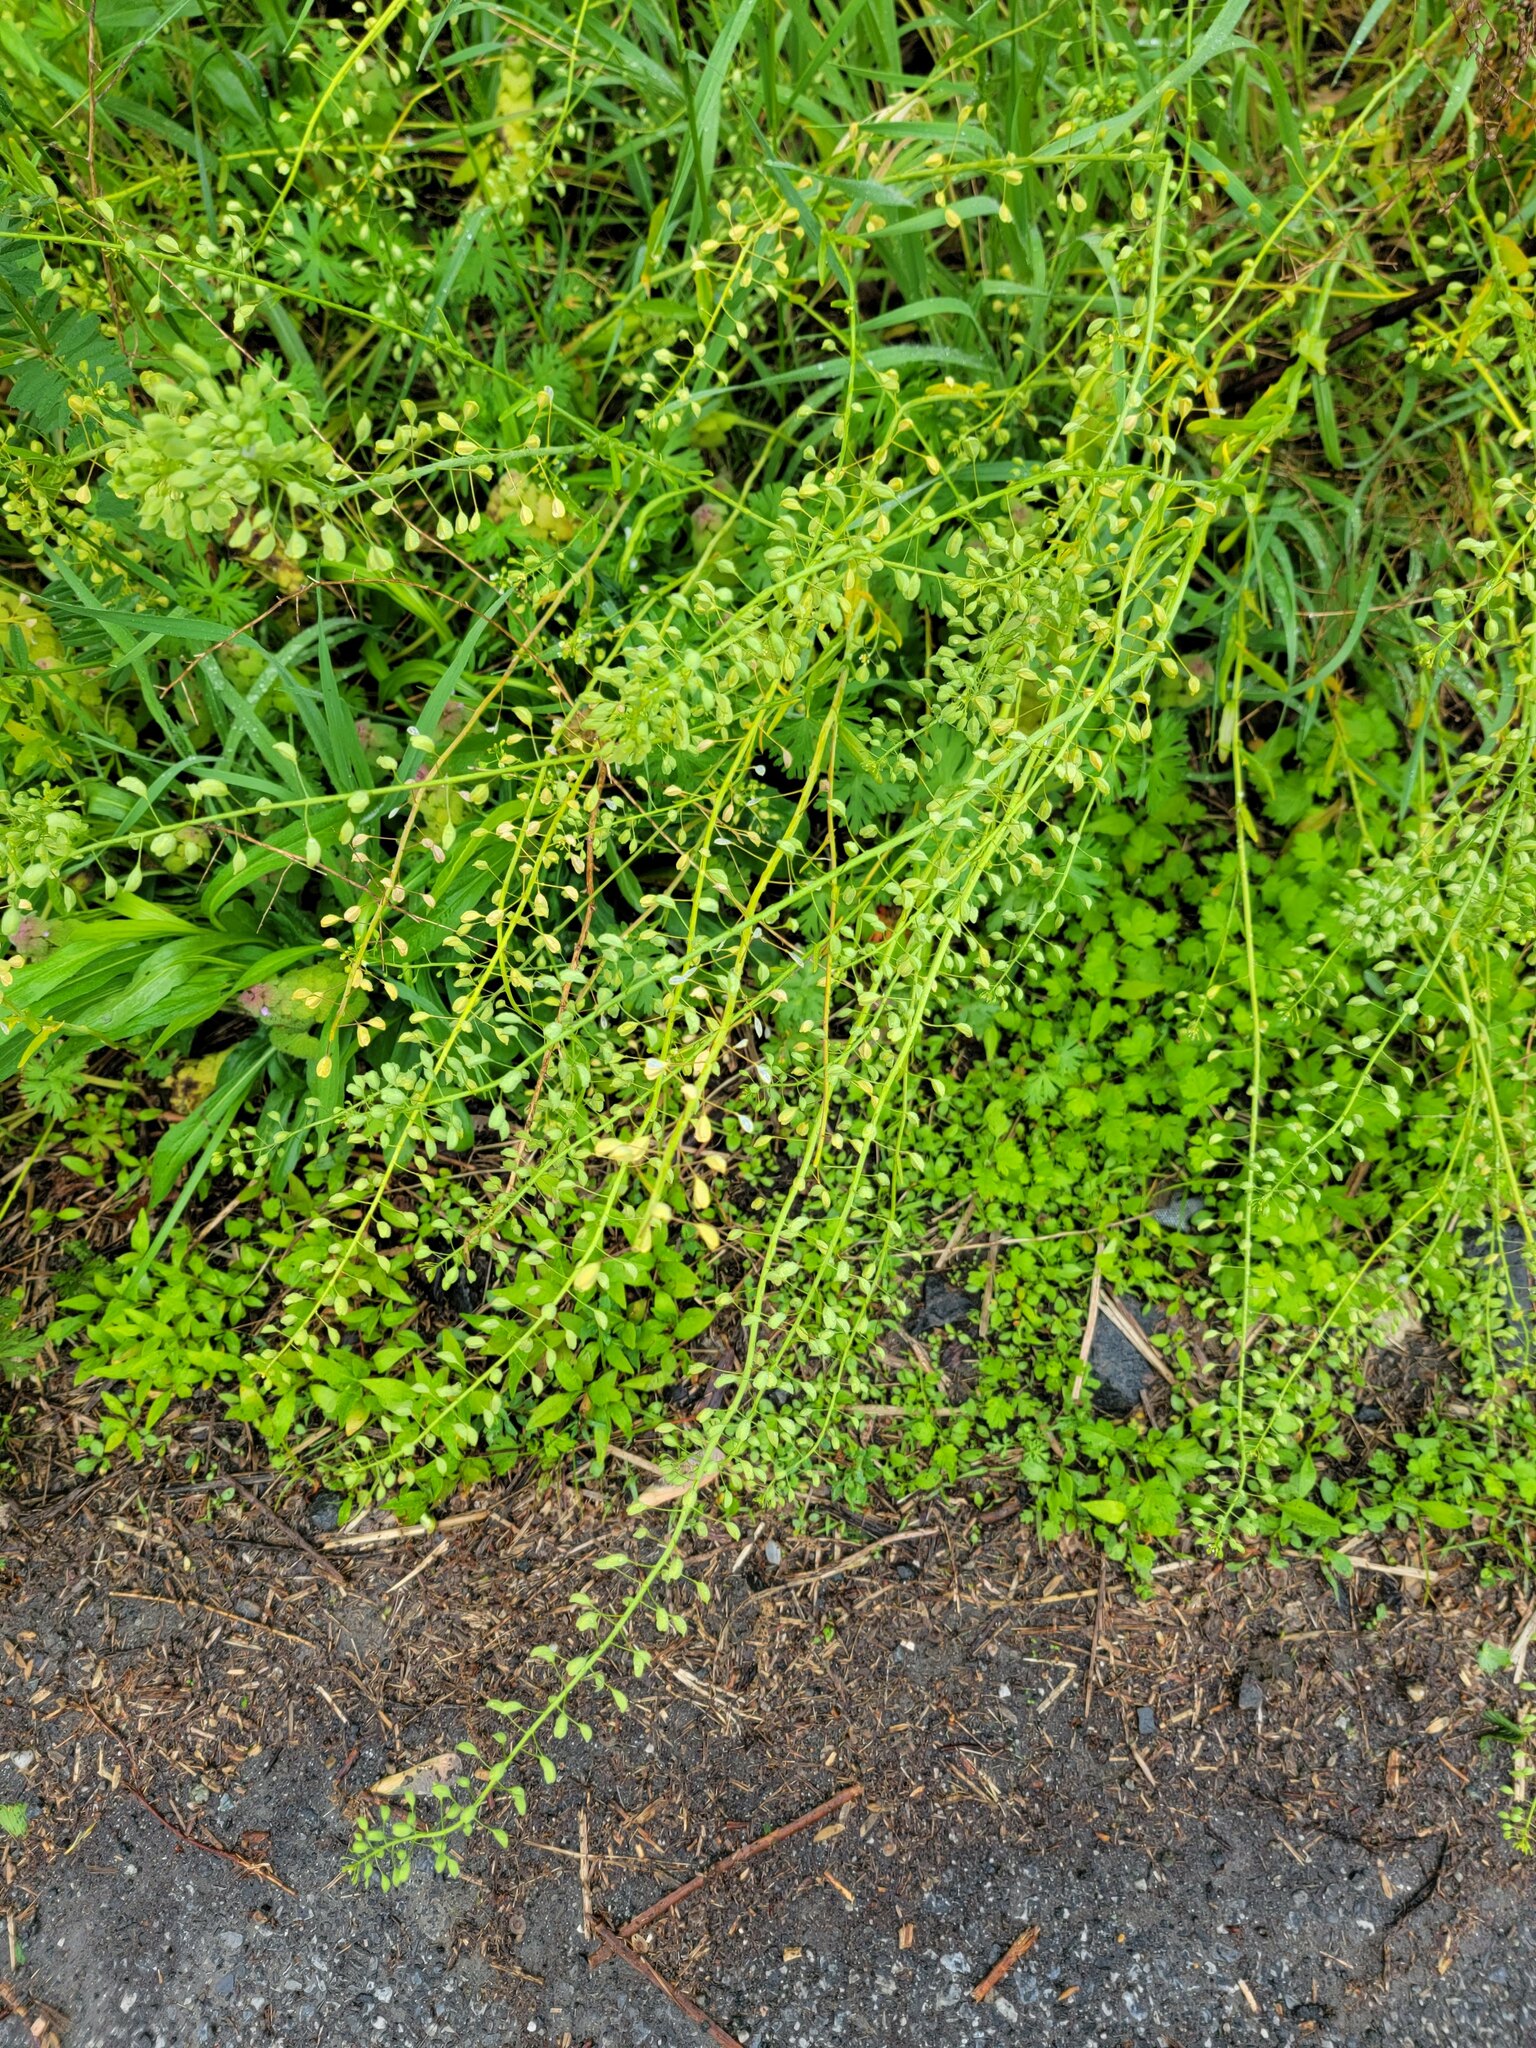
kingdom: Plantae
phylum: Tracheophyta
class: Magnoliopsida
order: Brassicales
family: Brassicaceae
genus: Mummenhoffia
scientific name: Mummenhoffia alliacea
